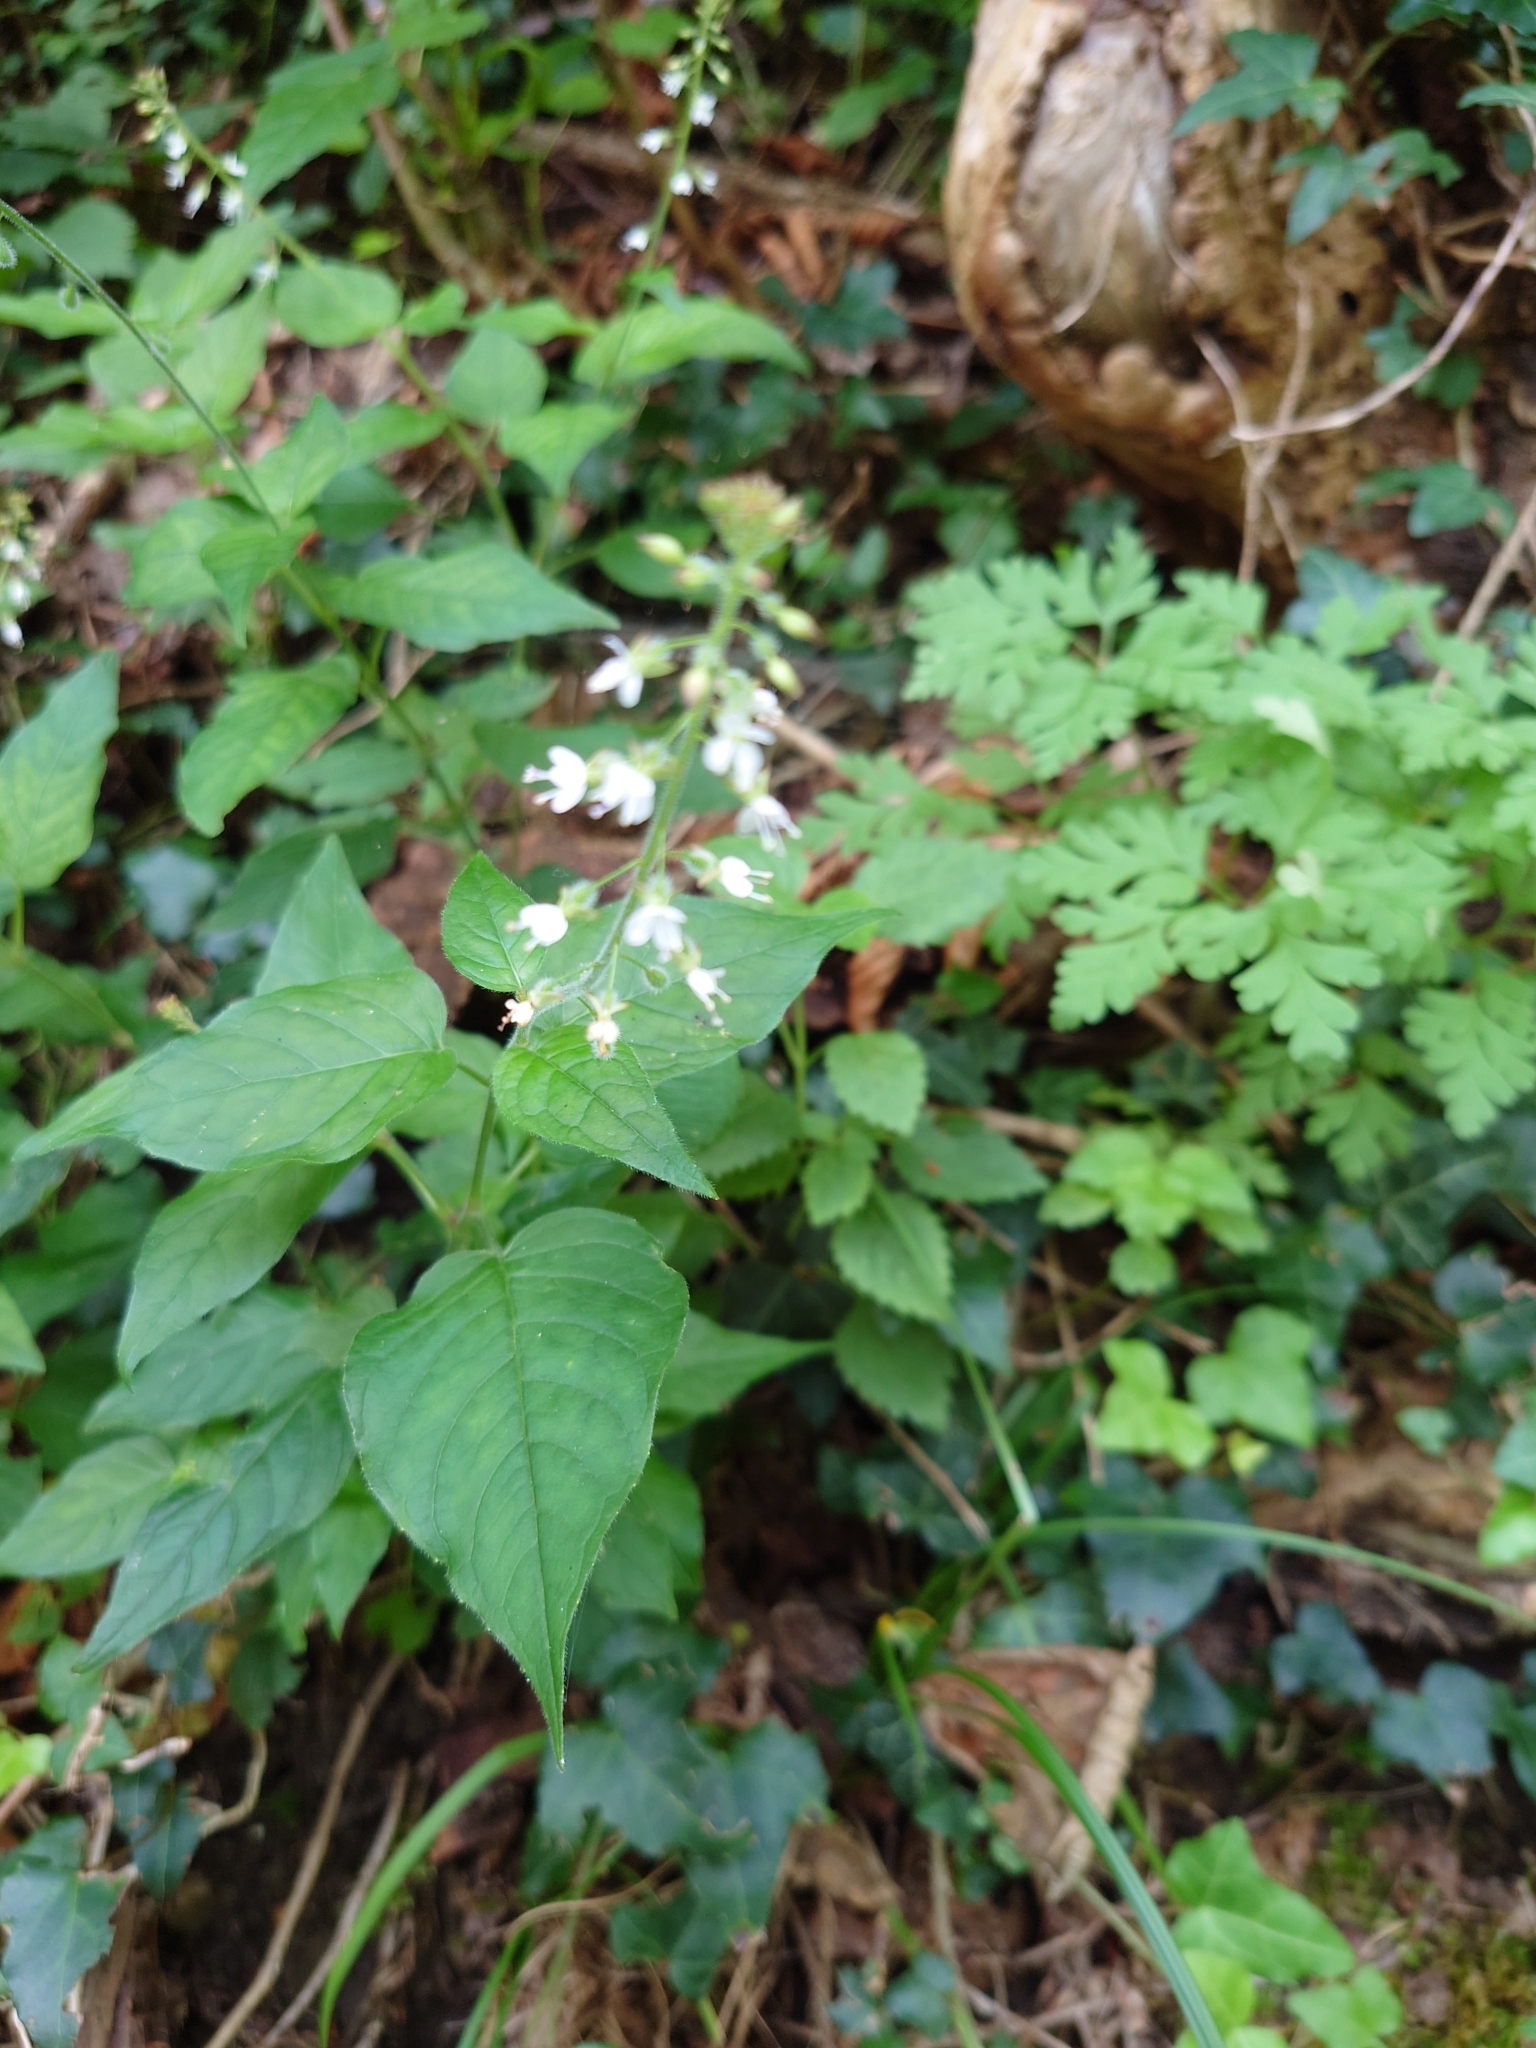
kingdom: Plantae
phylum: Tracheophyta
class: Magnoliopsida
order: Myrtales
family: Onagraceae
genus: Circaea
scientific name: Circaea lutetiana
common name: Enchanter's-nightshade
